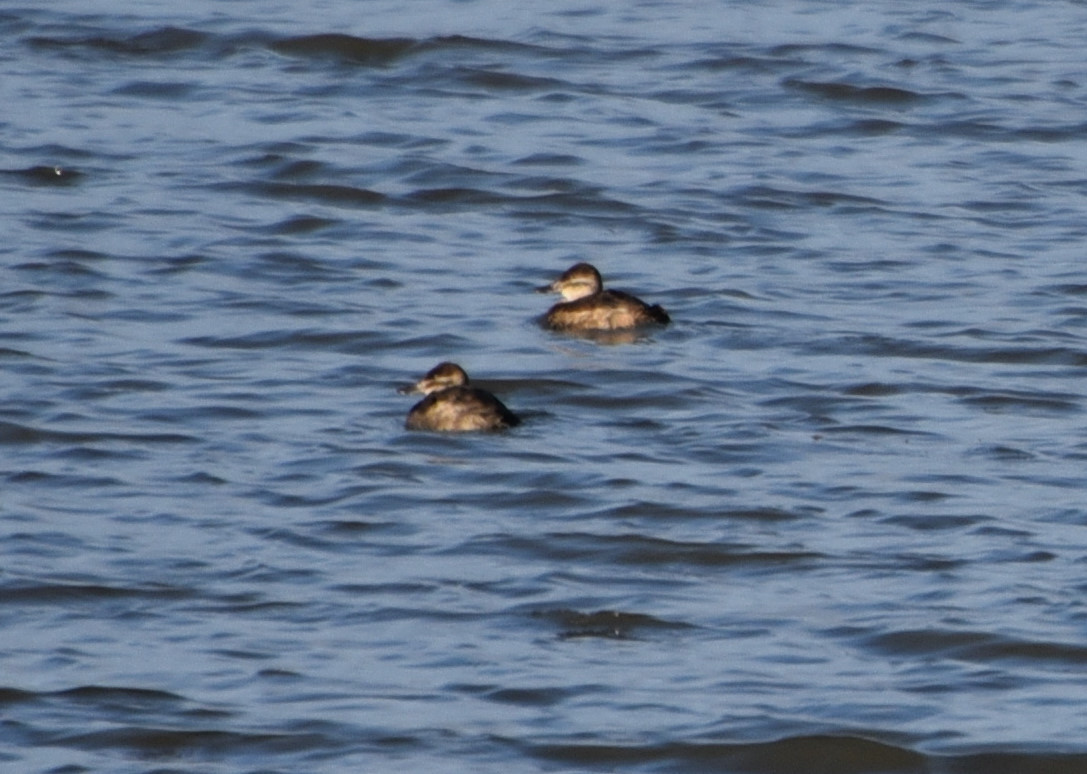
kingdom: Animalia
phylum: Chordata
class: Aves
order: Anseriformes
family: Anatidae
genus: Oxyura
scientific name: Oxyura jamaicensis
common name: Ruddy duck
